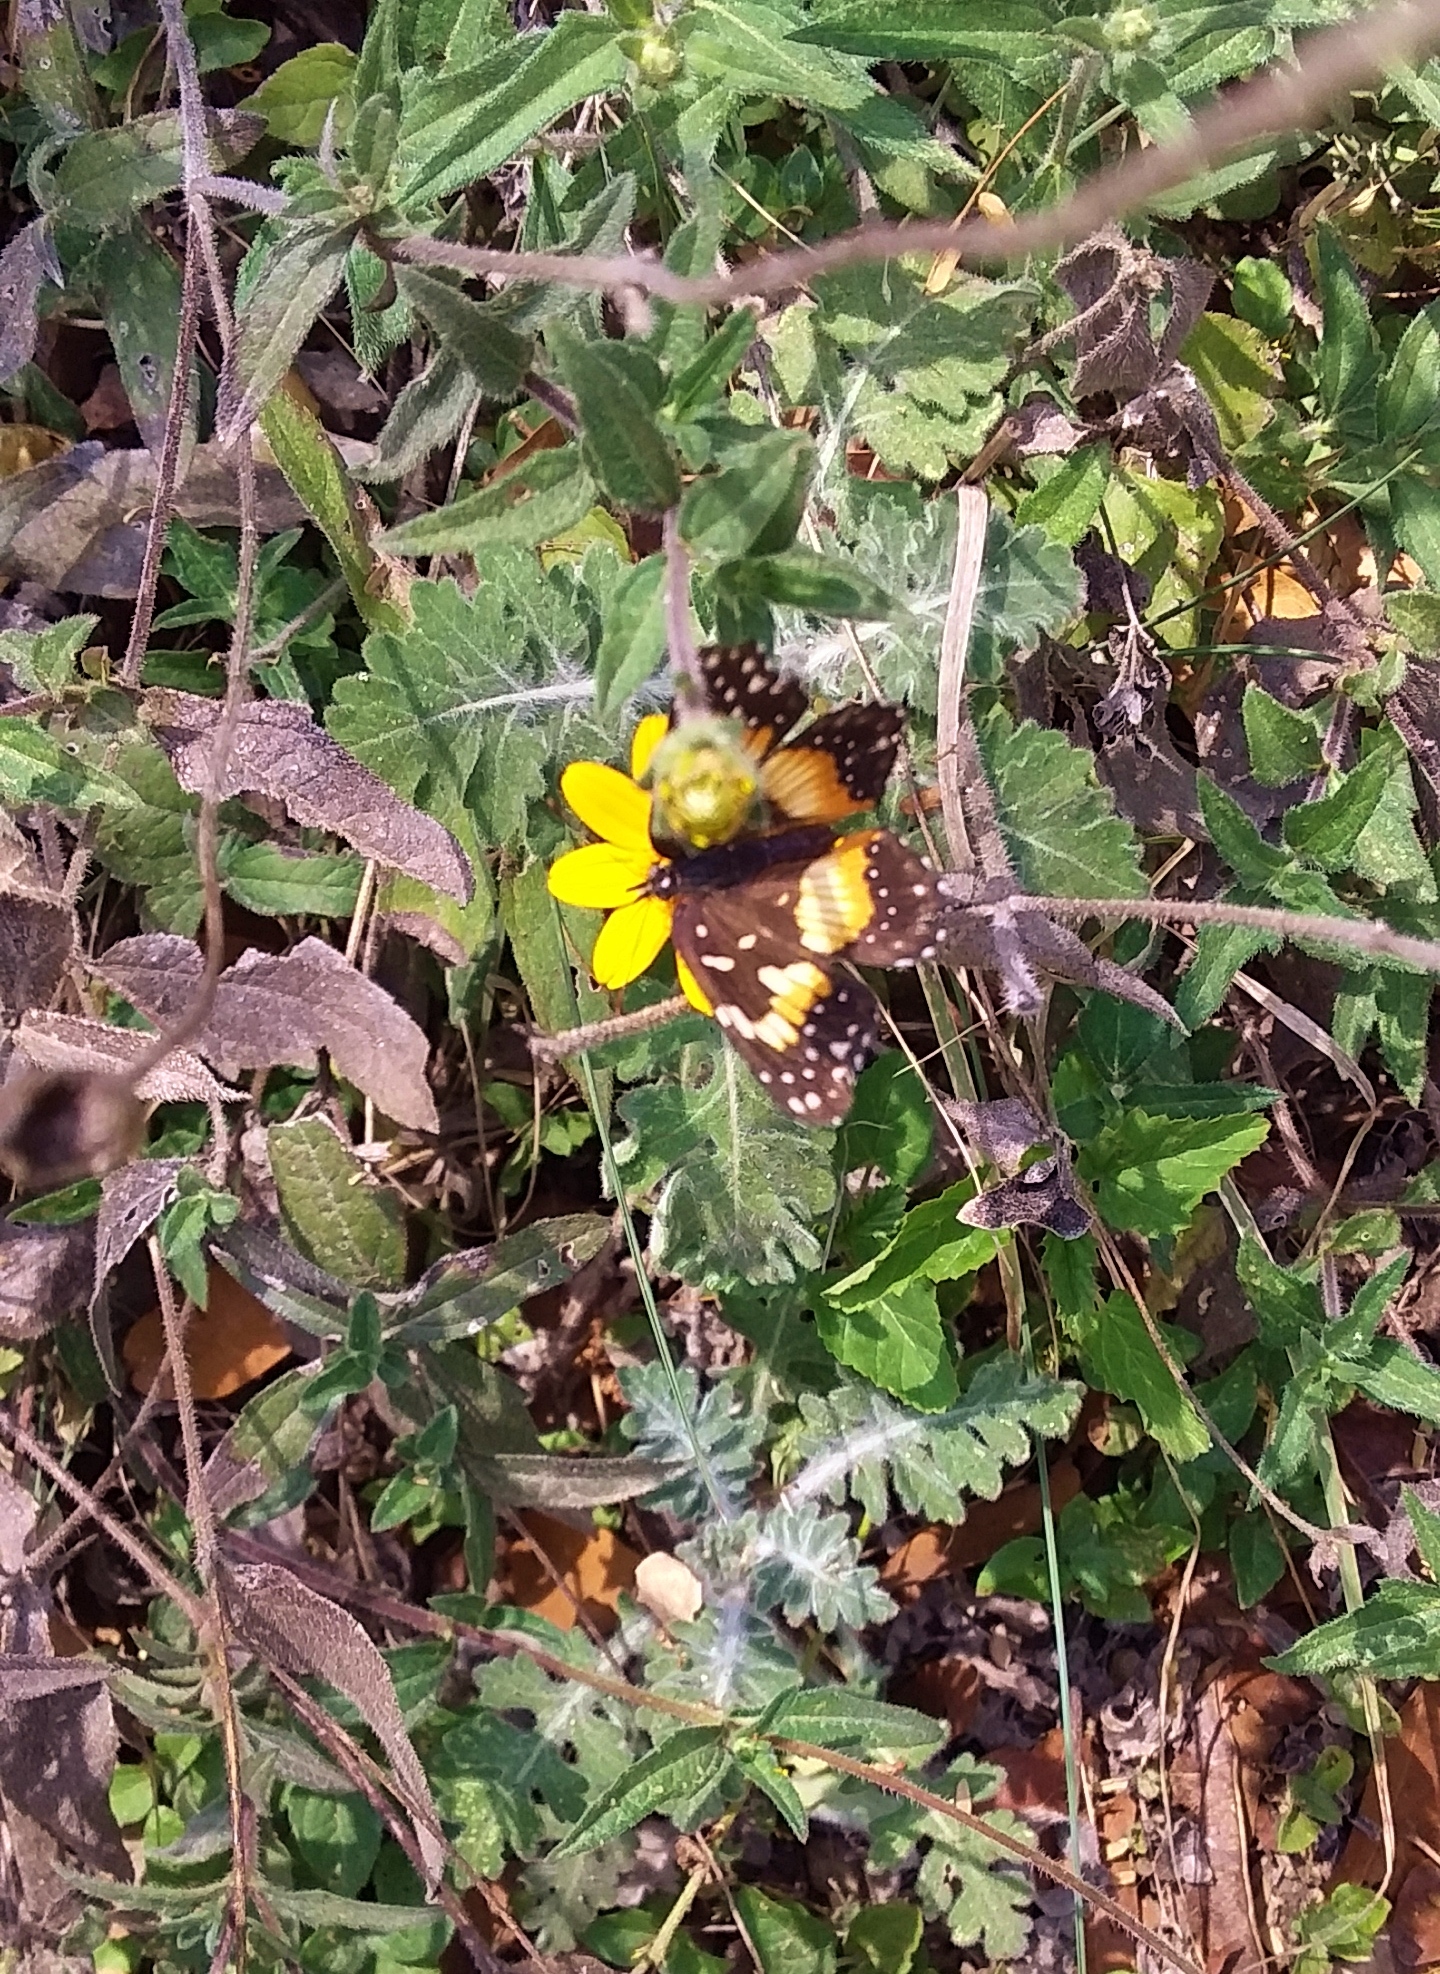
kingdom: Animalia
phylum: Arthropoda
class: Insecta
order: Lepidoptera
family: Nymphalidae
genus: Chlosyne
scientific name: Chlosyne lacinia
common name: Bordered patch
